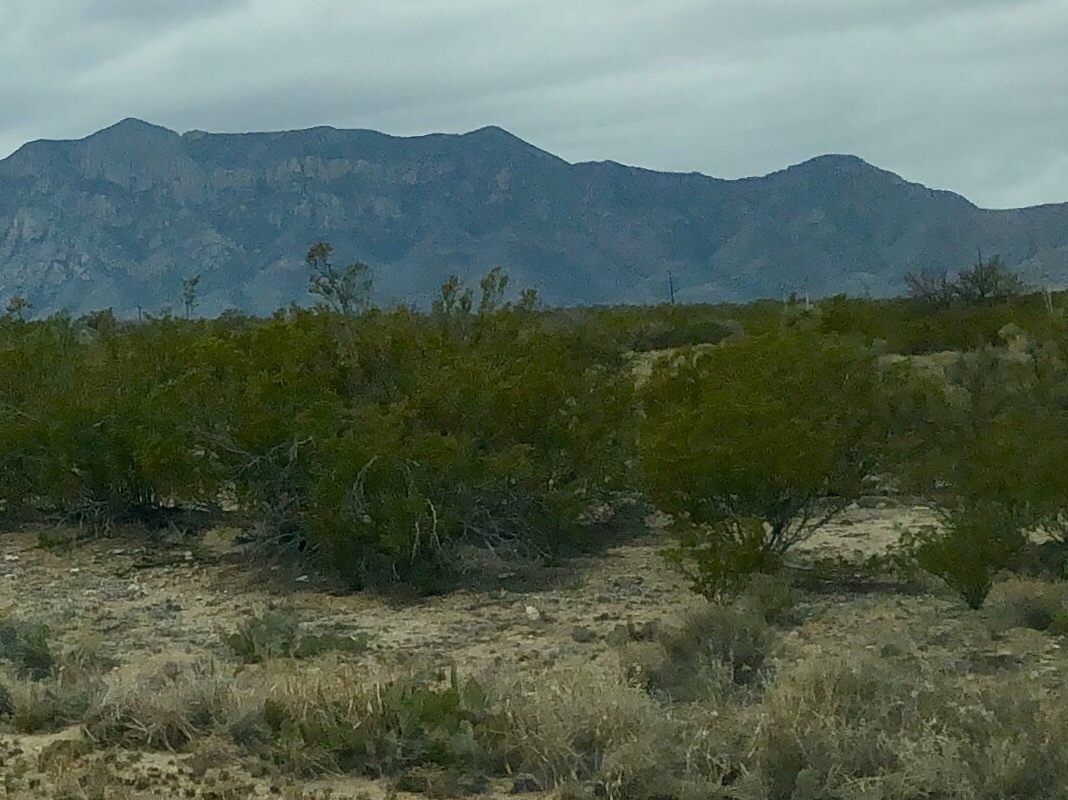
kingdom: Plantae
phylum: Tracheophyta
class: Magnoliopsida
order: Zygophyllales
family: Zygophyllaceae
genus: Larrea
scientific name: Larrea tridentata
